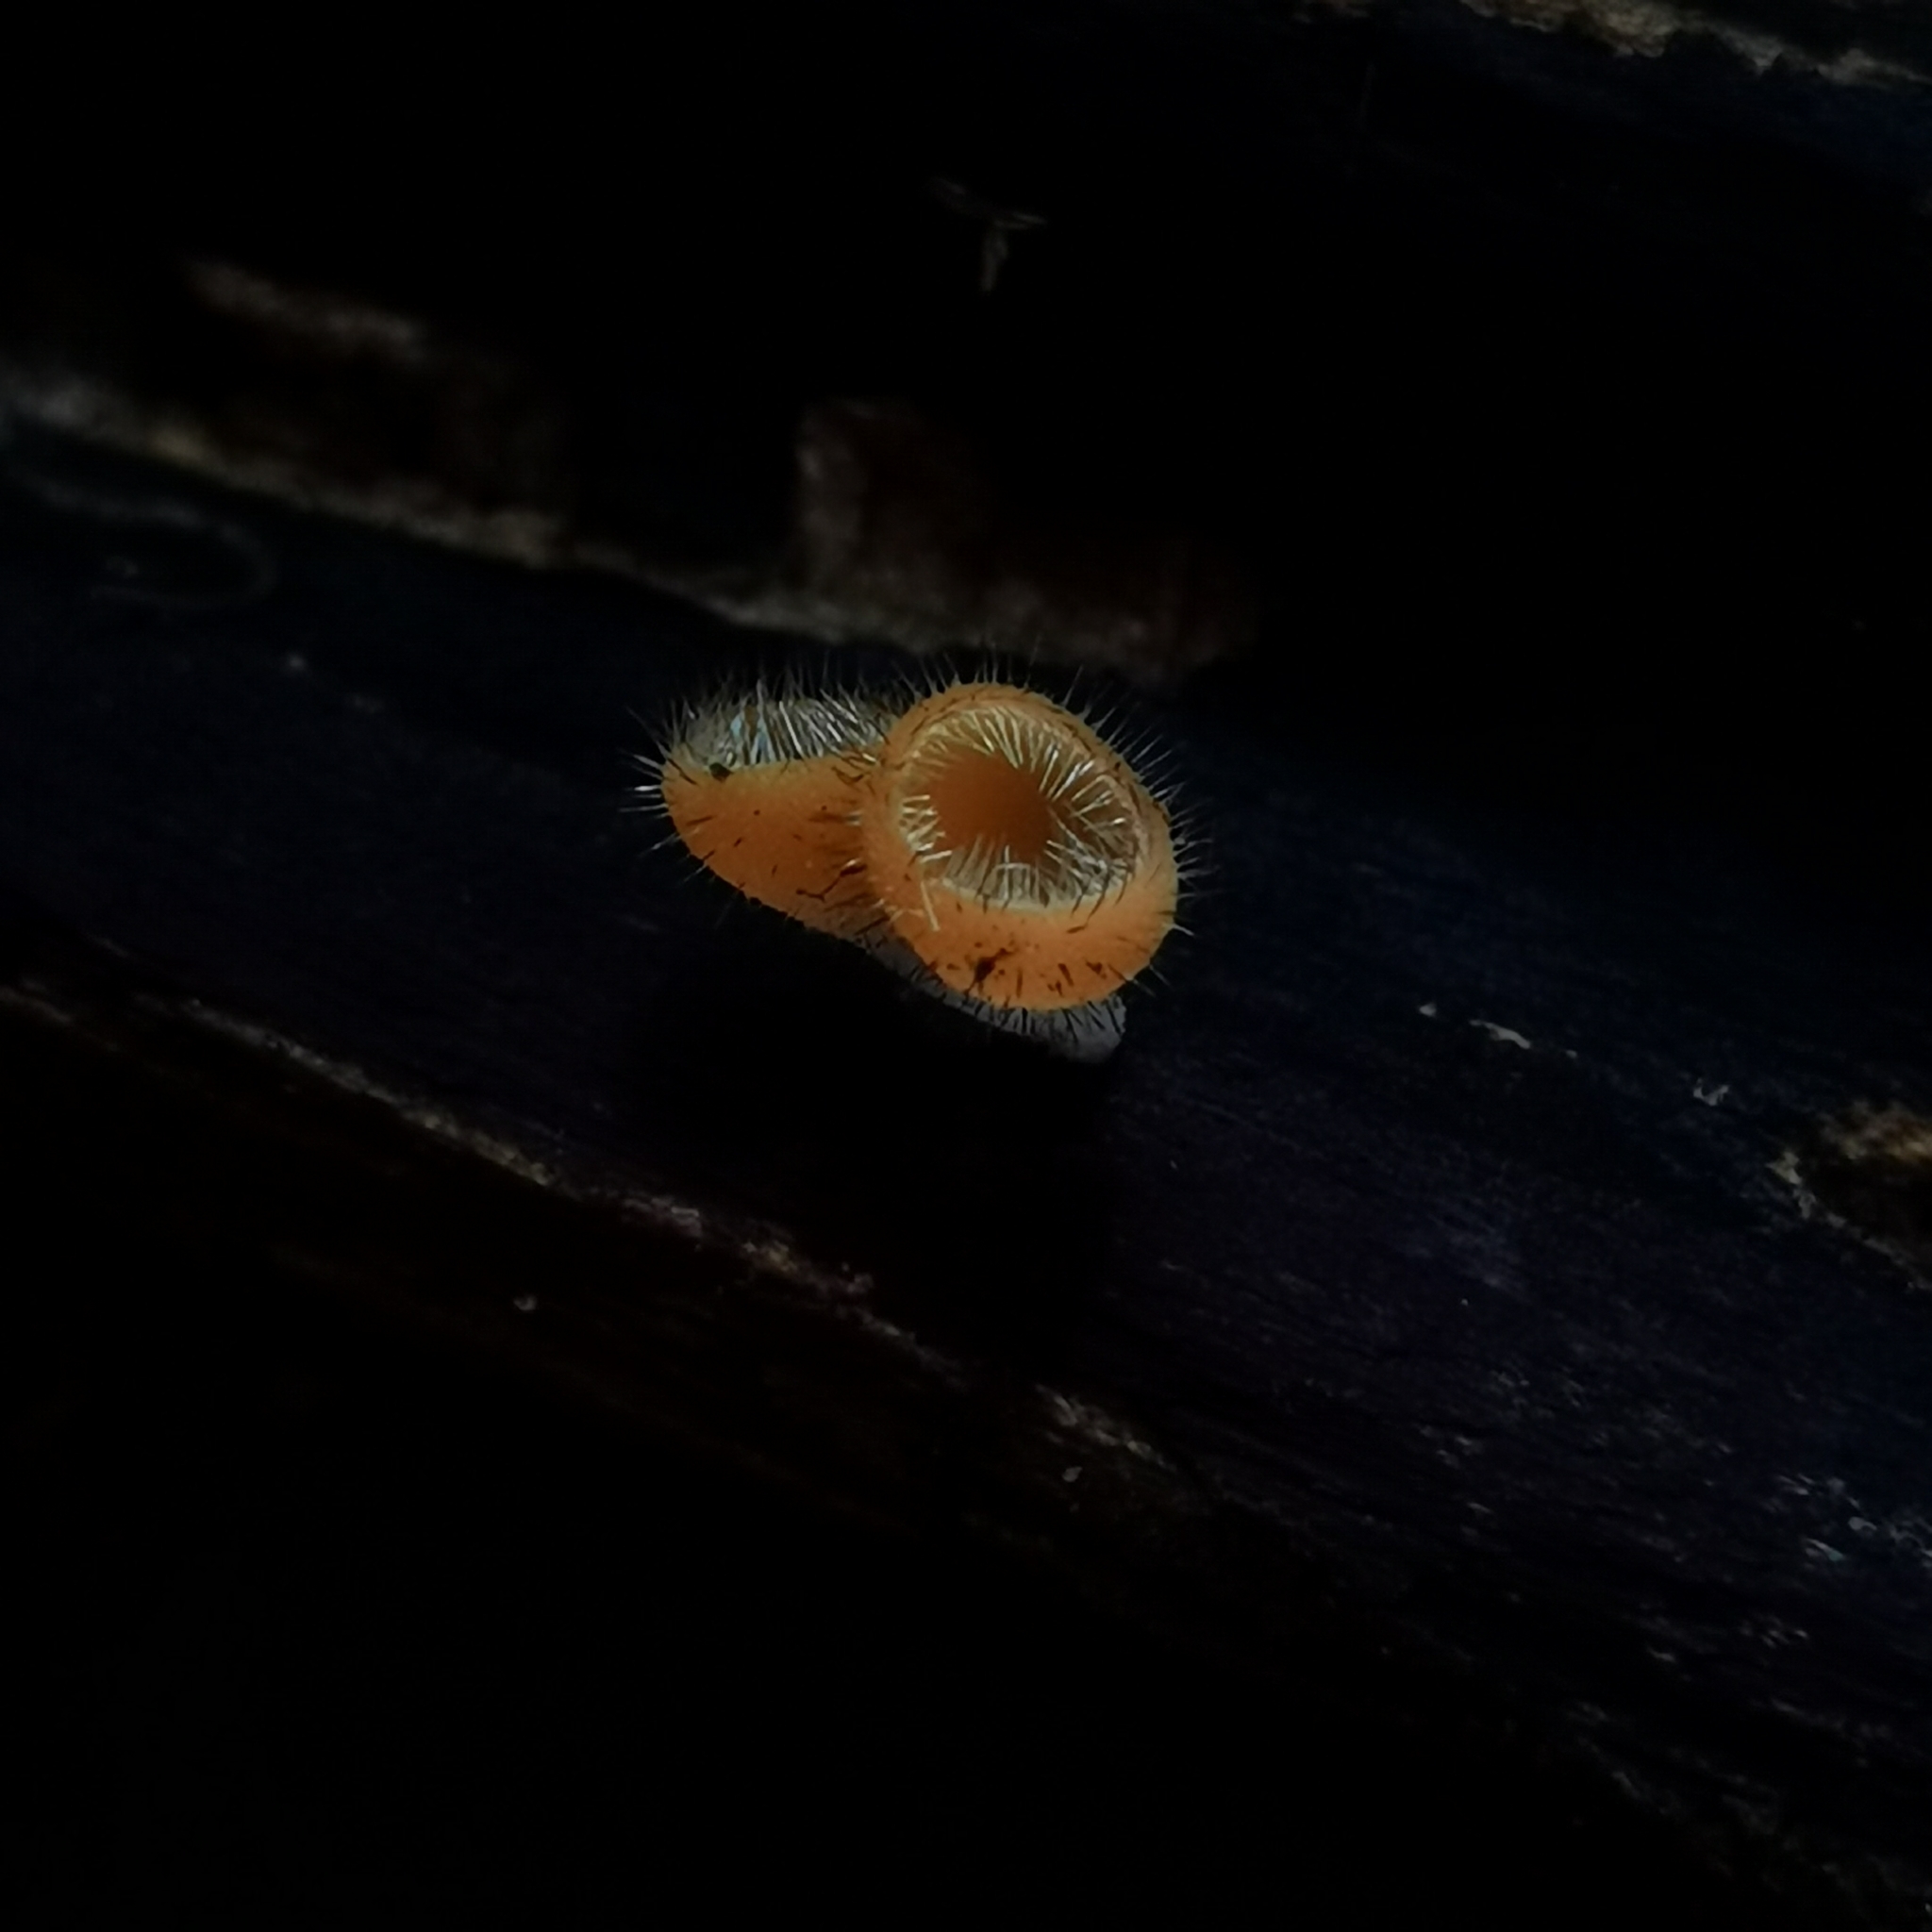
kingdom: Fungi
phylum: Ascomycota
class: Pezizomycetes
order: Pezizales
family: Sarcoscyphaceae
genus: Cookeina
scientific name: Cookeina tricholoma
